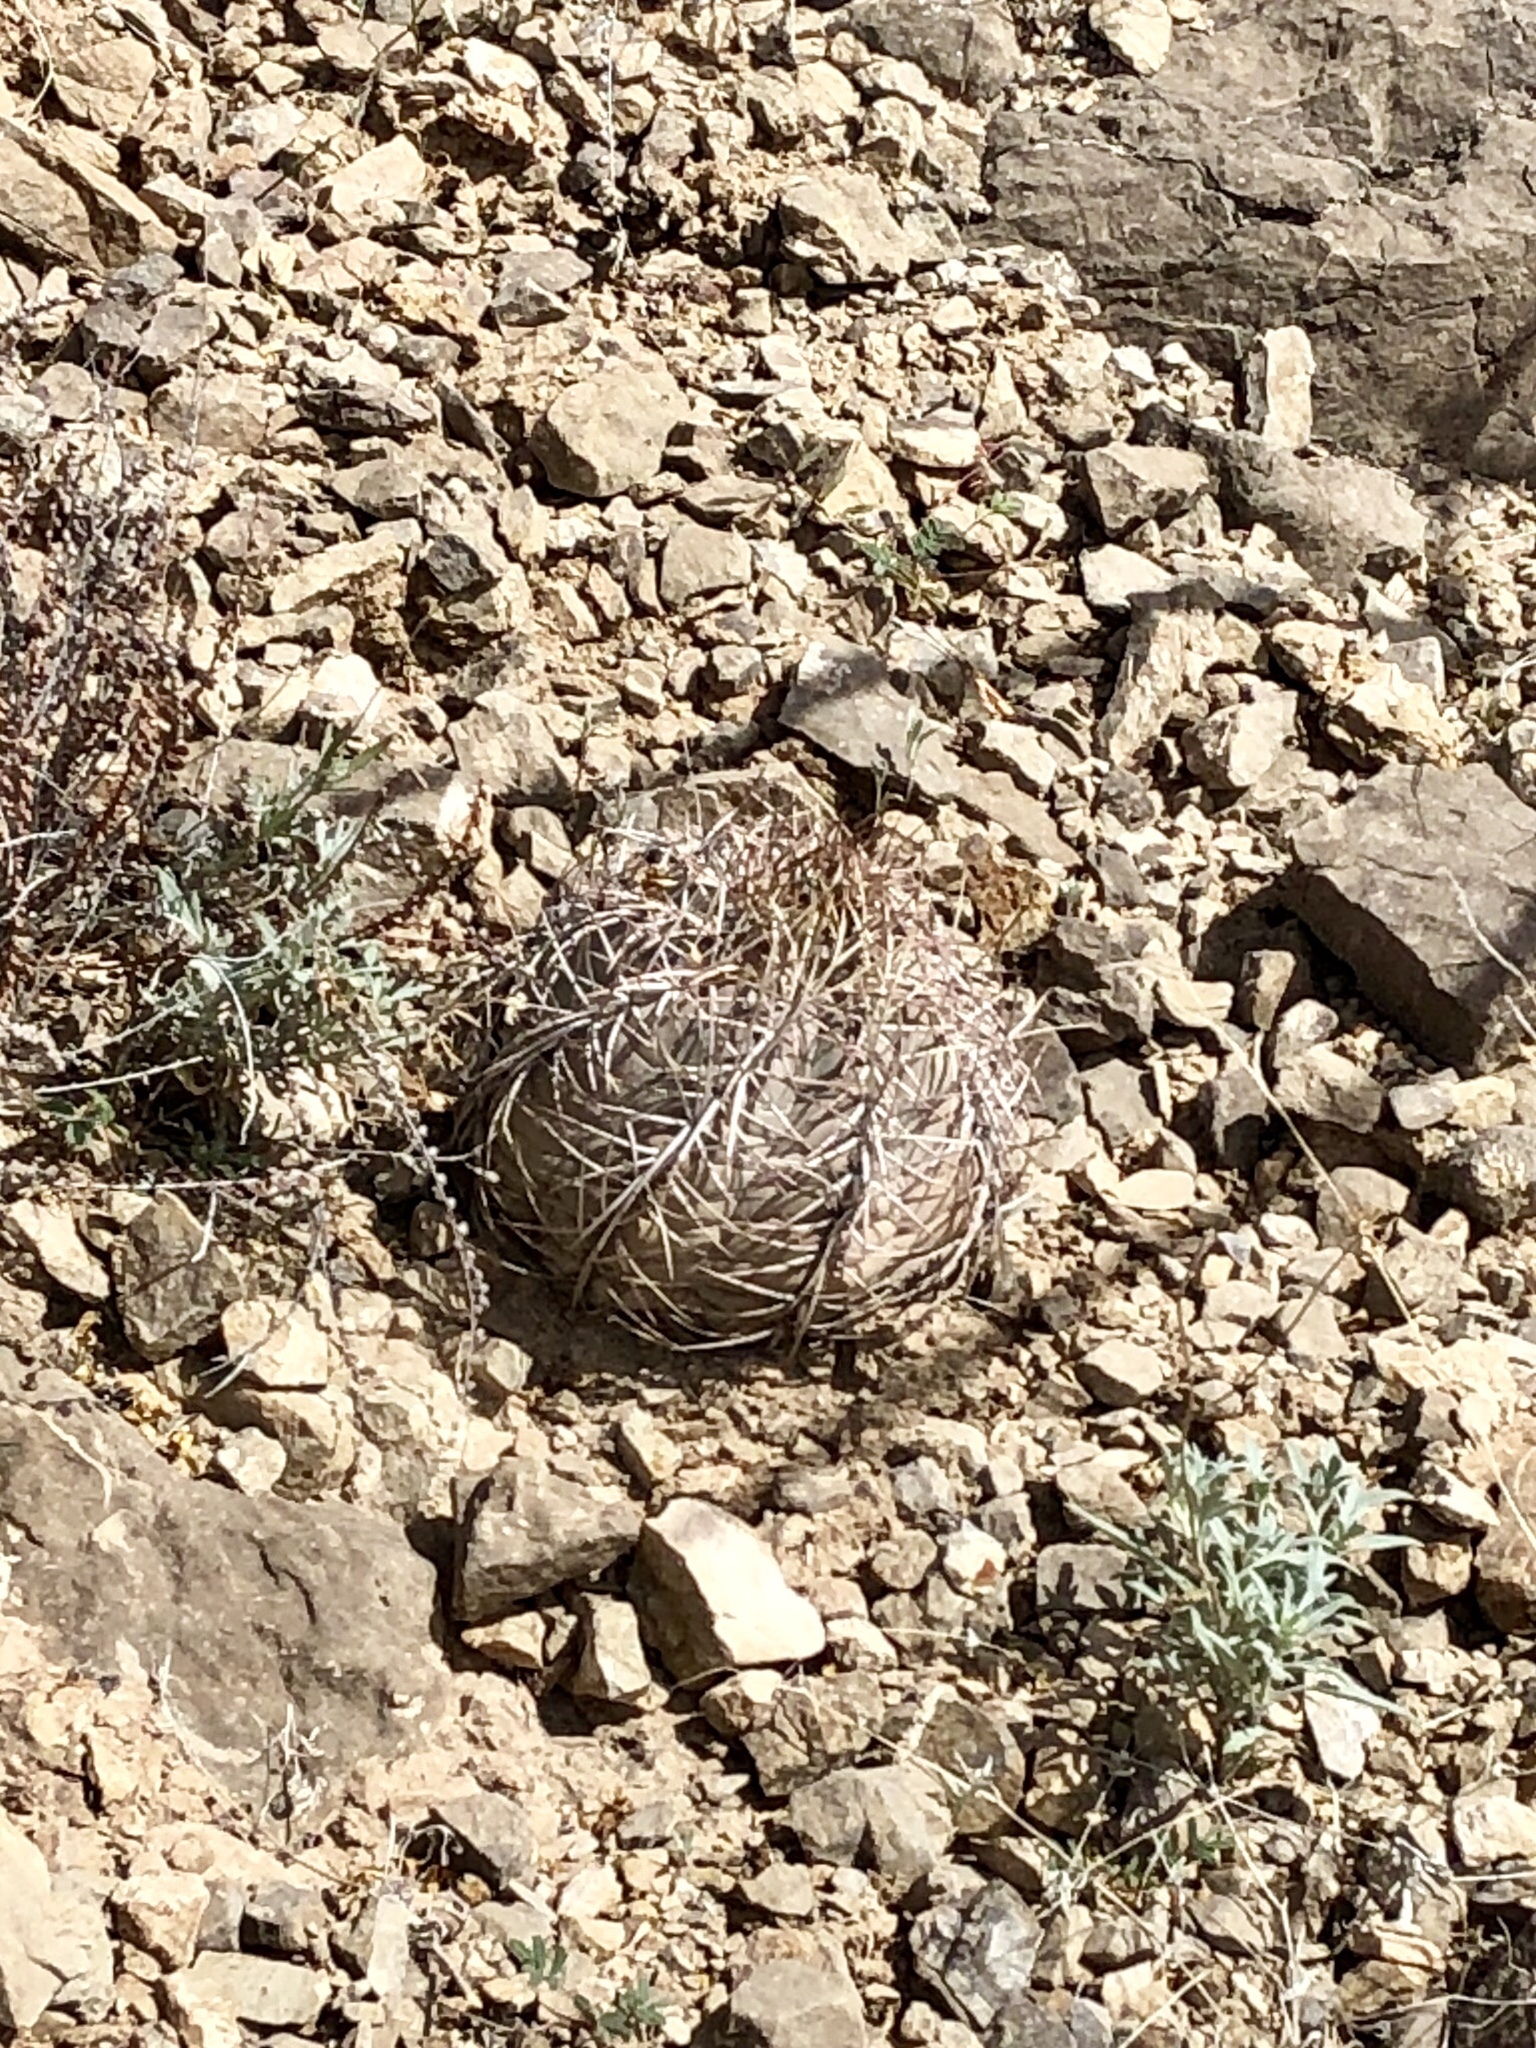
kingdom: Plantae
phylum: Tracheophyta
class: Magnoliopsida
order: Caryophyllales
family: Cactaceae
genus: Echinocactus
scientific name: Echinocactus horizonthalonius
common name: Devilshead
